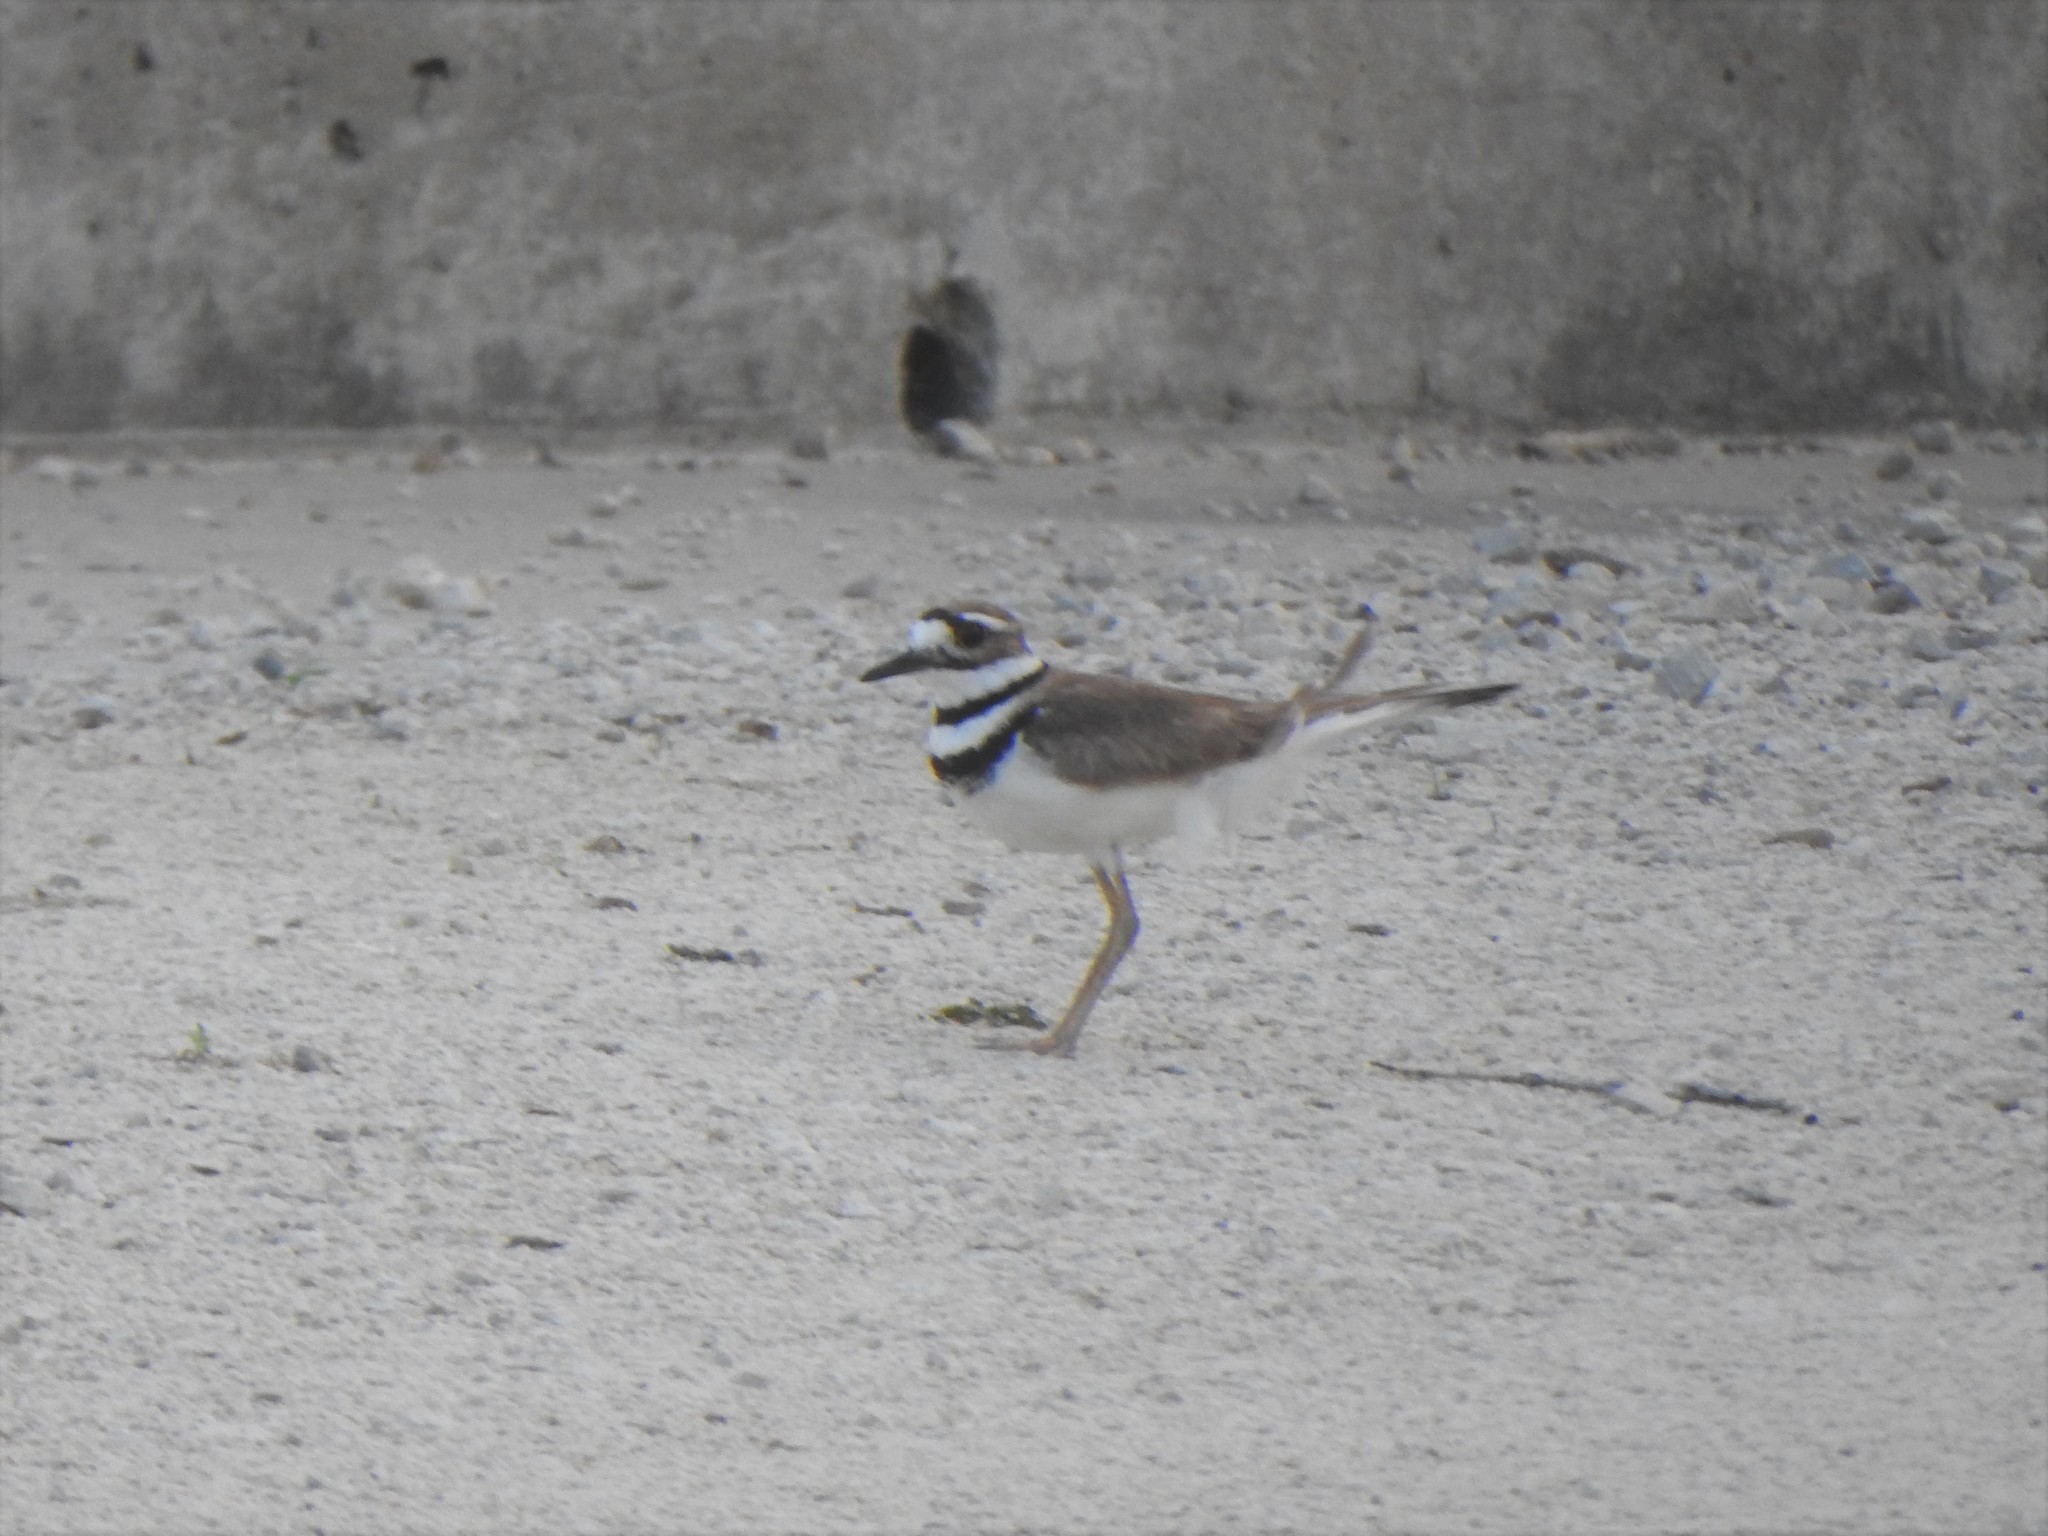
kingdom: Animalia
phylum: Chordata
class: Aves
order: Charadriiformes
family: Charadriidae
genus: Charadrius
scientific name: Charadrius vociferus
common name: Killdeer
